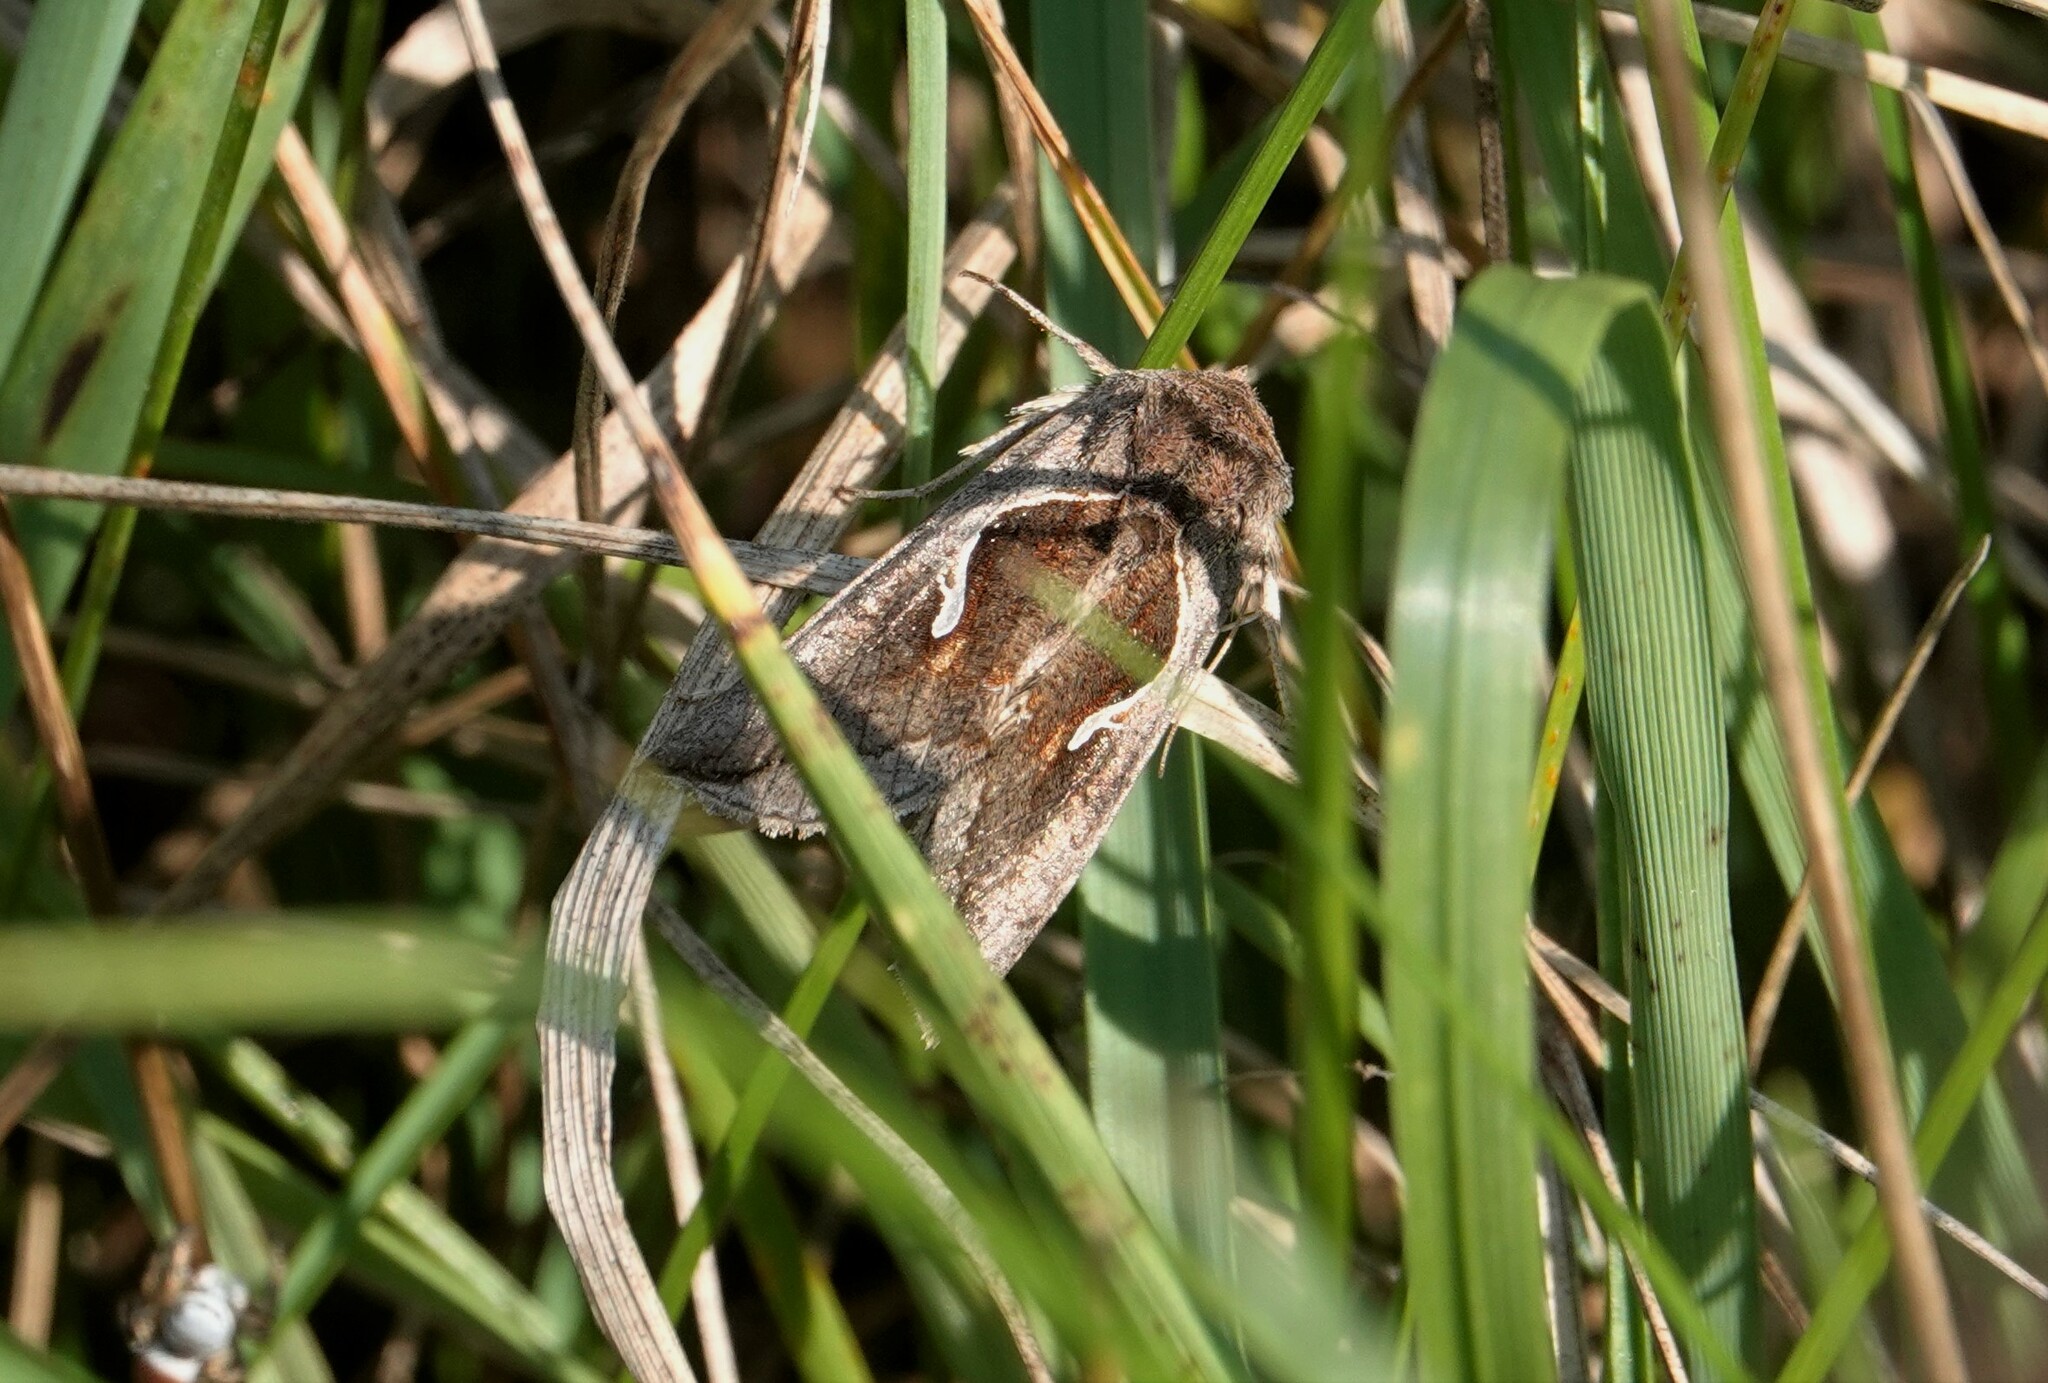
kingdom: Animalia
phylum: Arthropoda
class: Insecta
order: Lepidoptera
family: Noctuidae
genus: Anagrapha
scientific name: Anagrapha falcifera
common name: Celery looper
